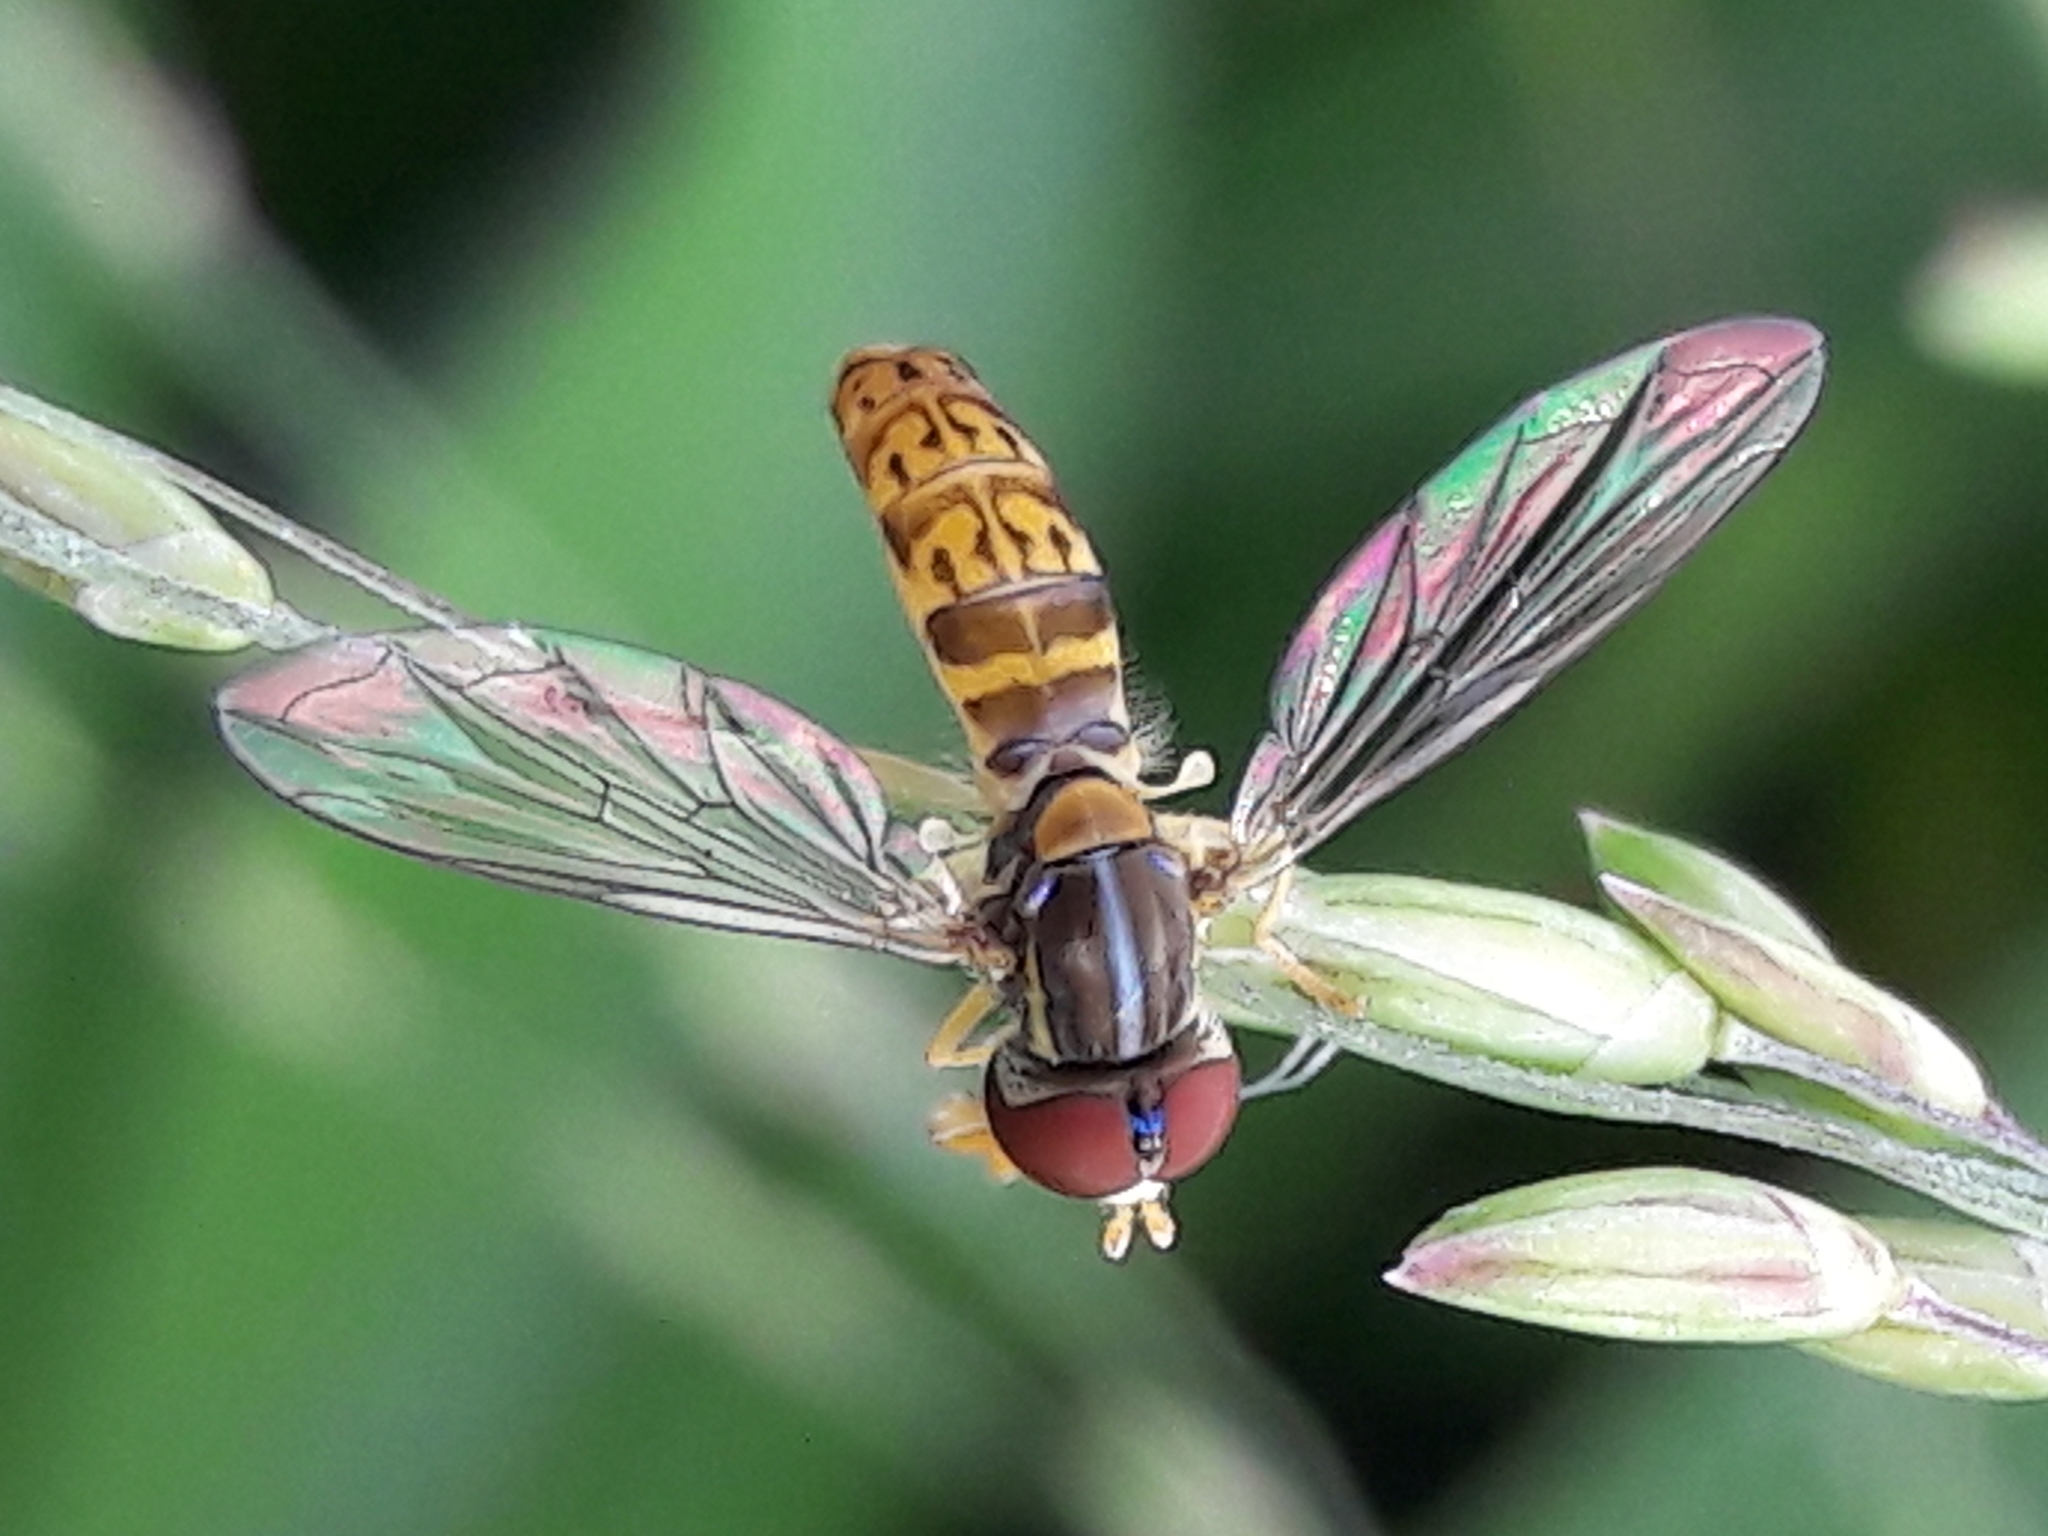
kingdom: Animalia
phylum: Arthropoda
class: Insecta
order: Diptera
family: Syrphidae
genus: Toxomerus
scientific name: Toxomerus
